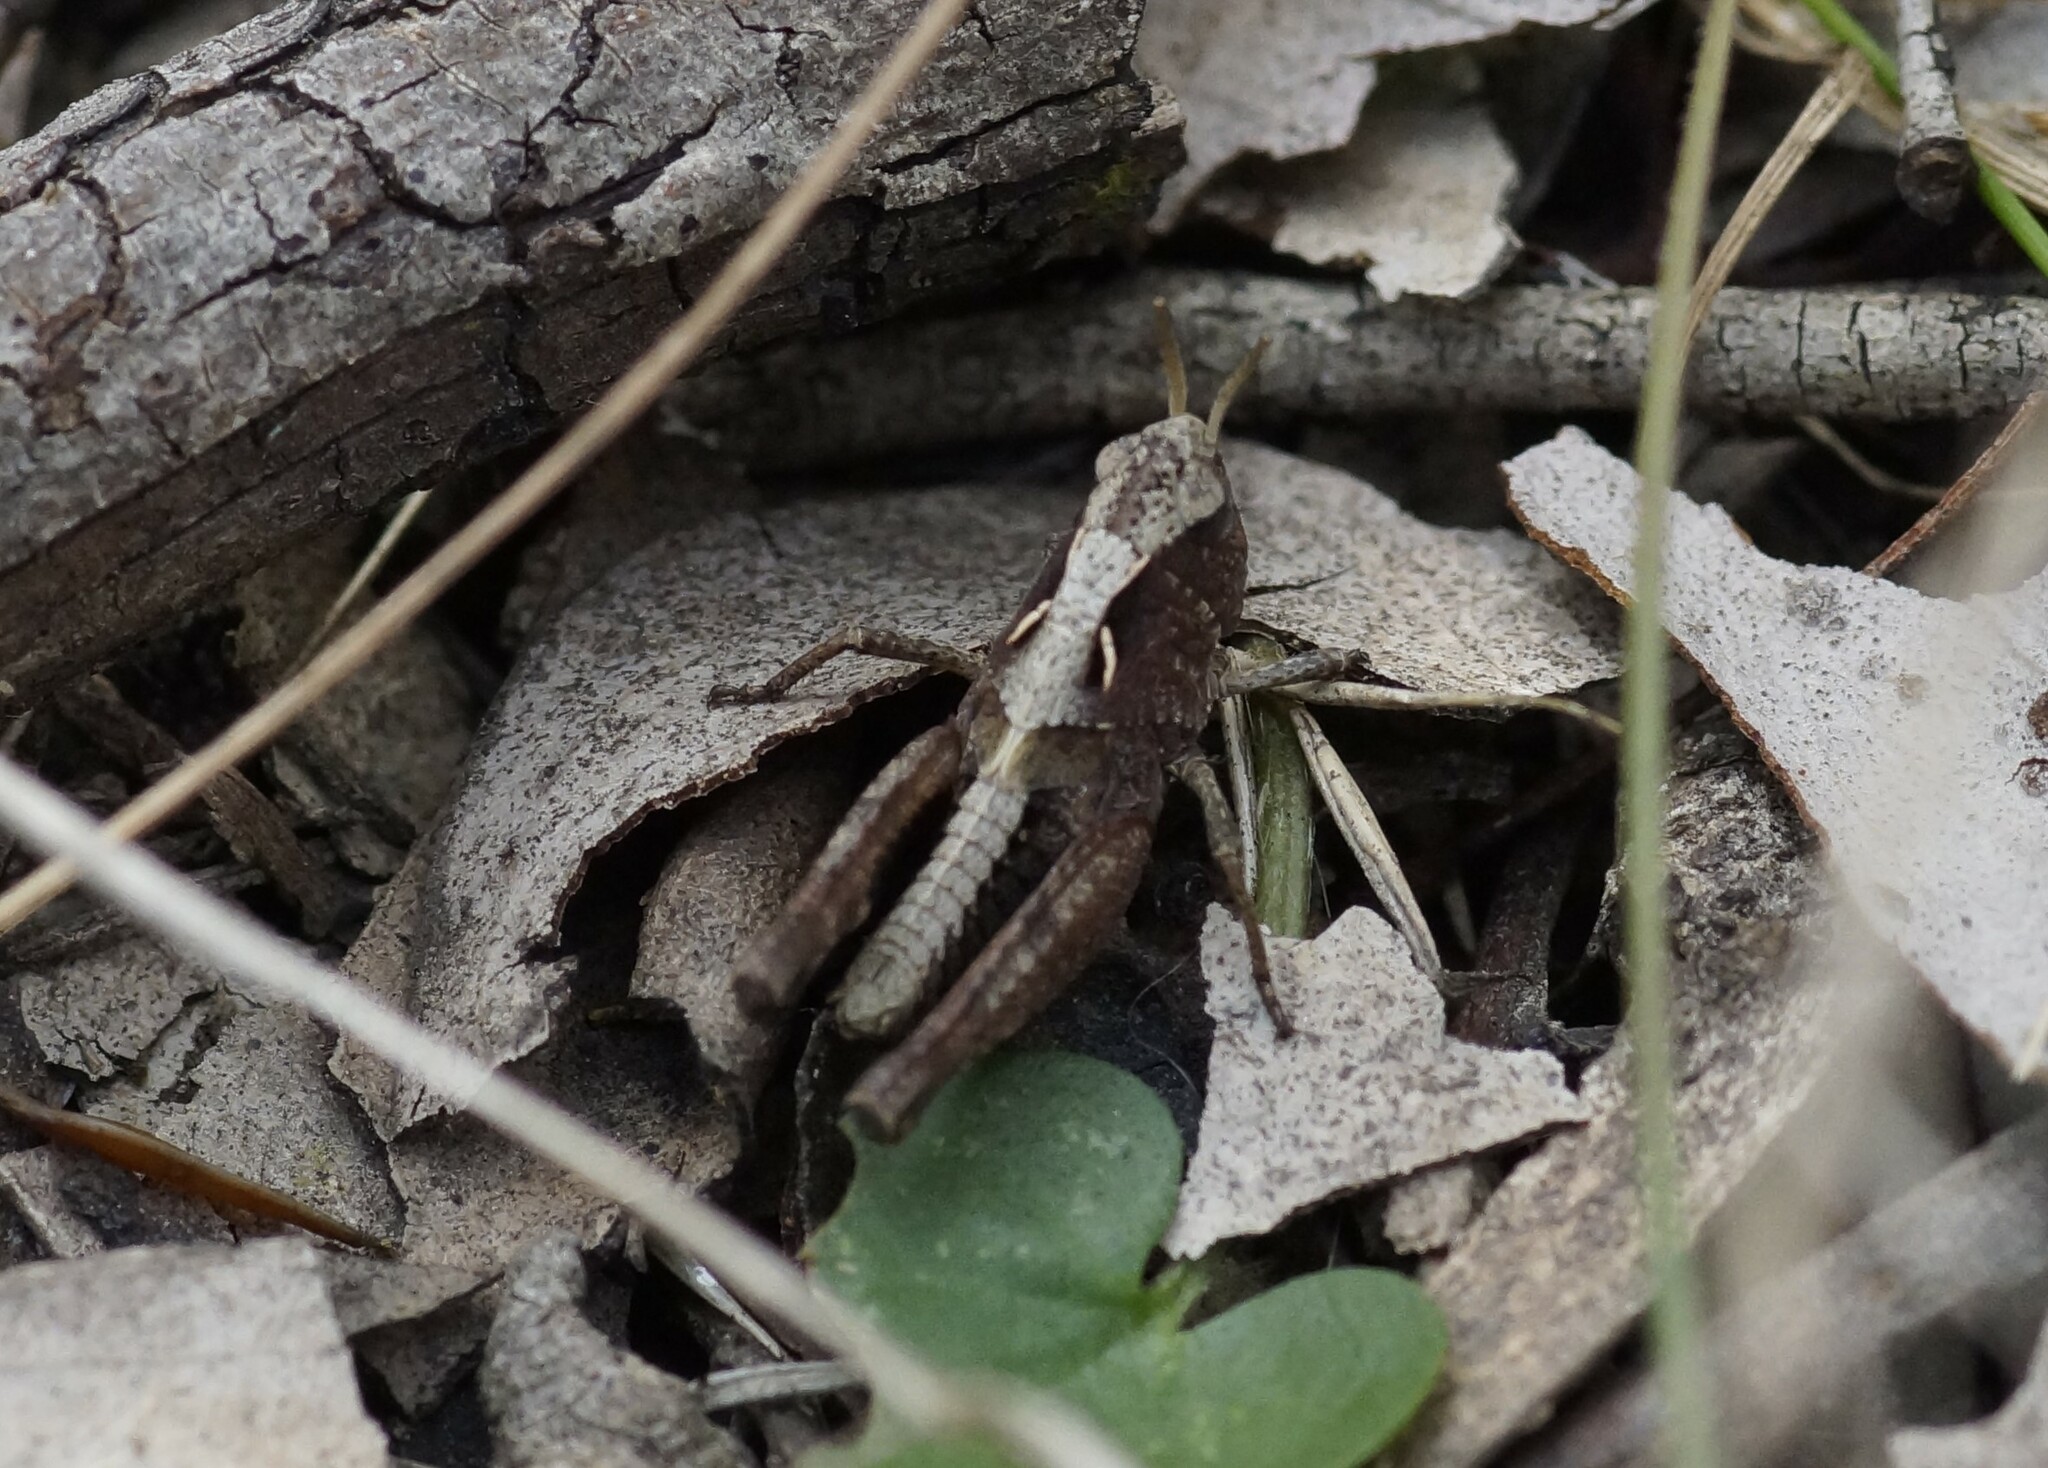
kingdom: Animalia
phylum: Arthropoda
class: Insecta
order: Orthoptera
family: Acrididae
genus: Cryptobothrus
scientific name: Cryptobothrus chrysophorus
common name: Golden bandwing
